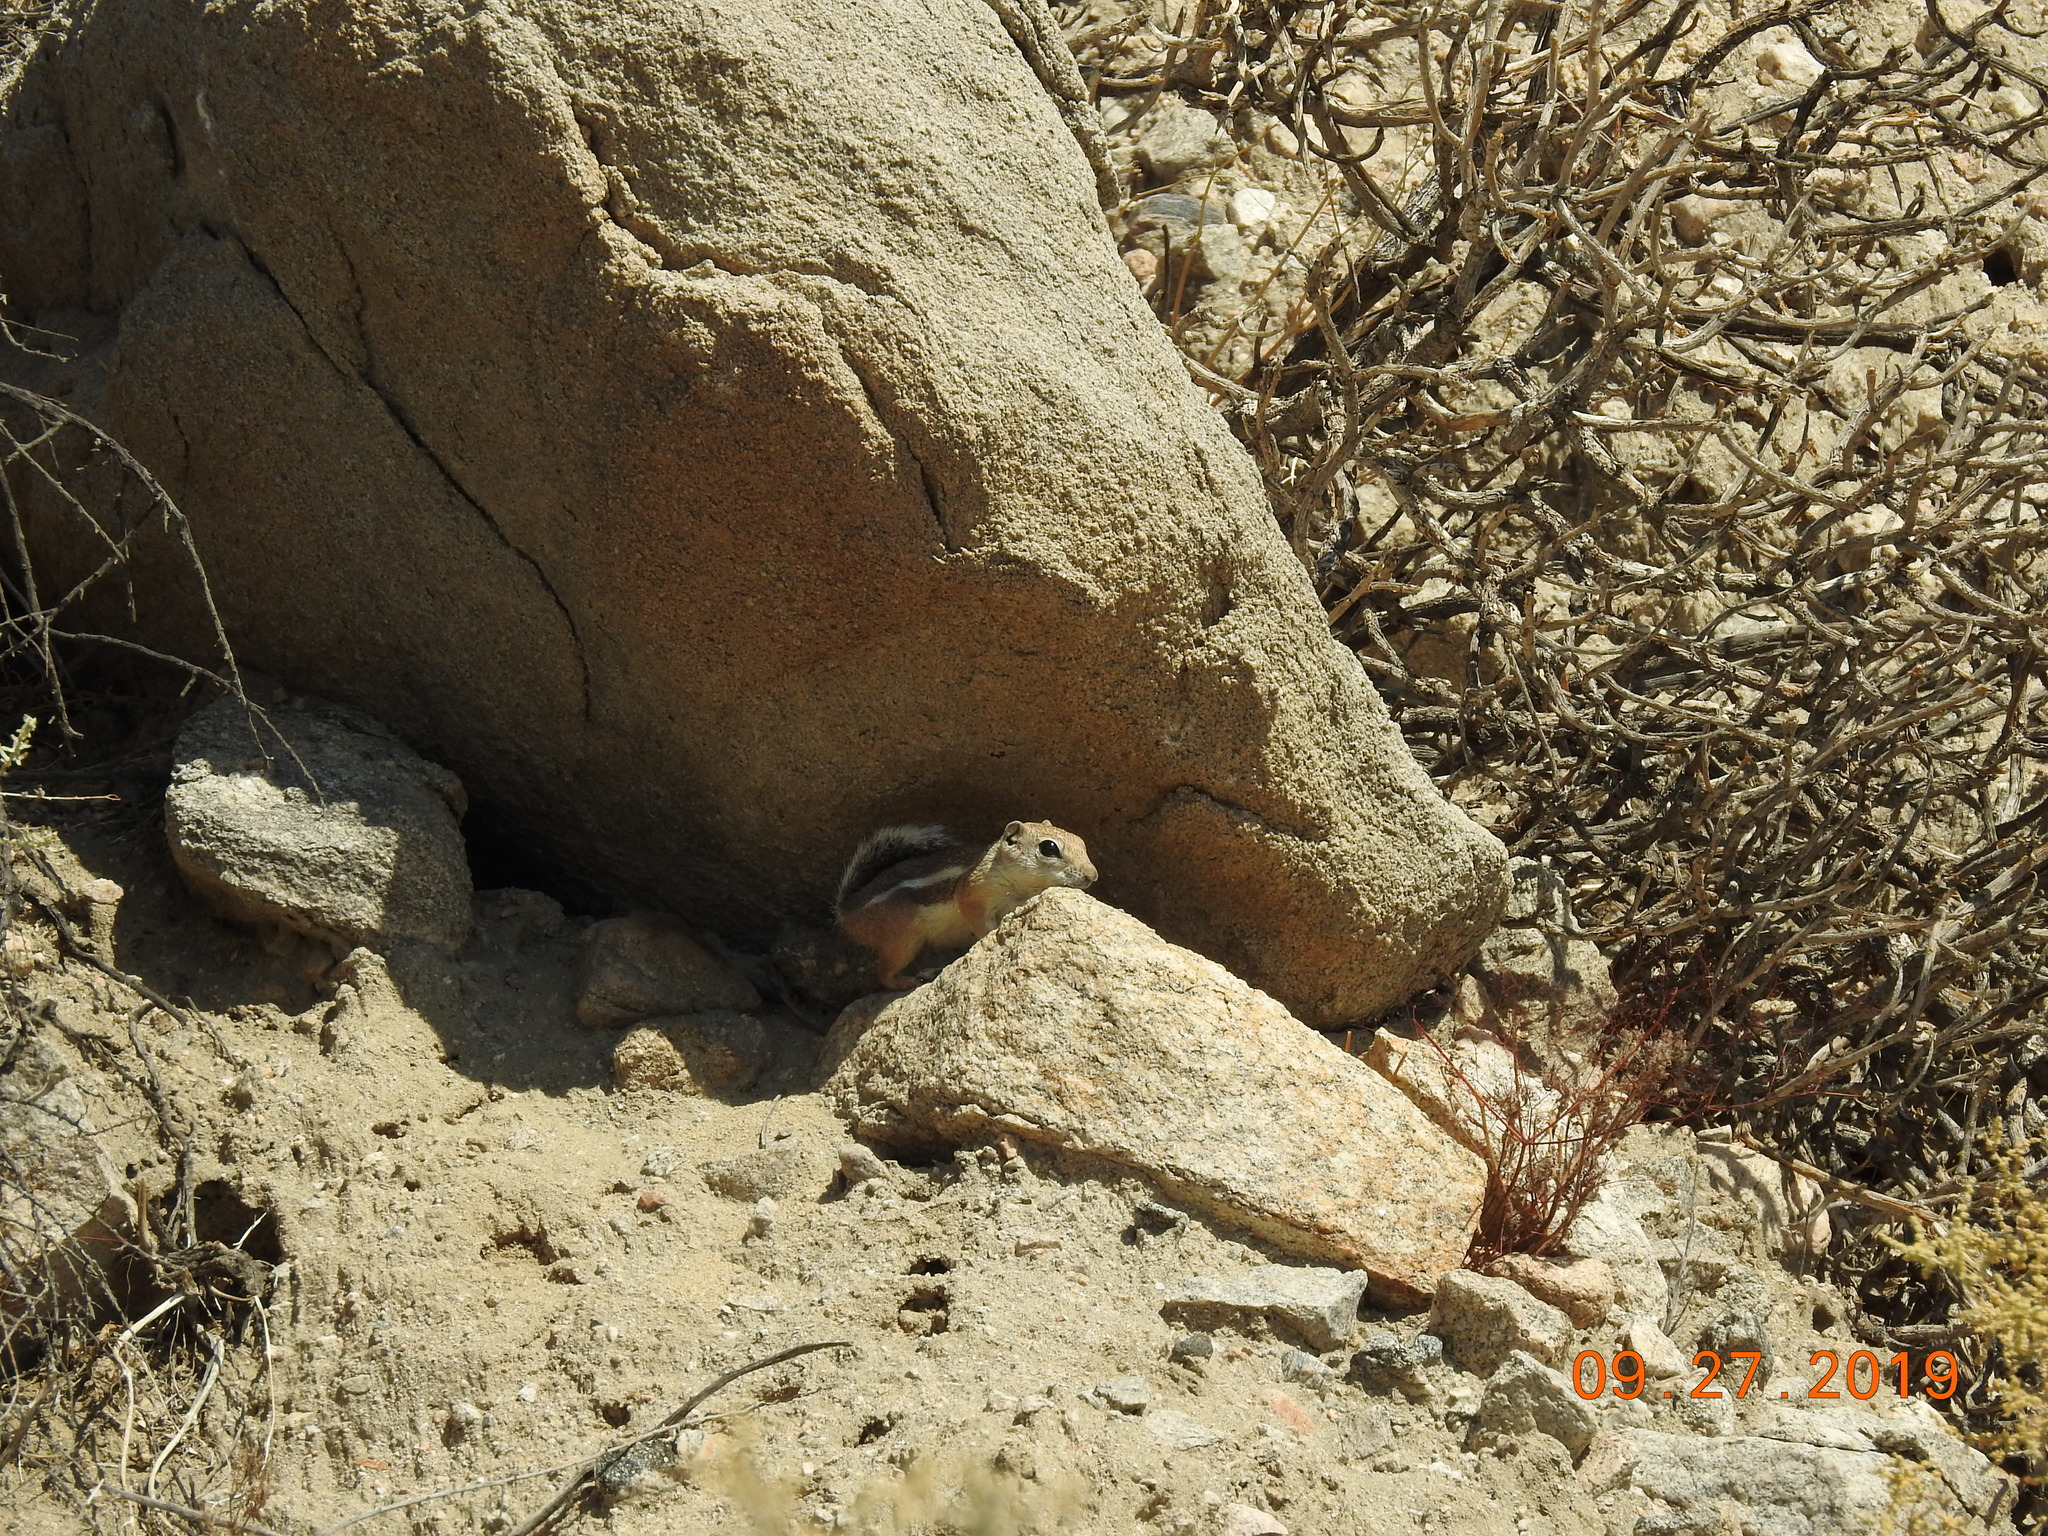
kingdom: Animalia
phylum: Chordata
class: Mammalia
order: Rodentia
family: Sciuridae
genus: Ammospermophilus
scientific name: Ammospermophilus leucurus
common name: White-tailed antelope squirrel
